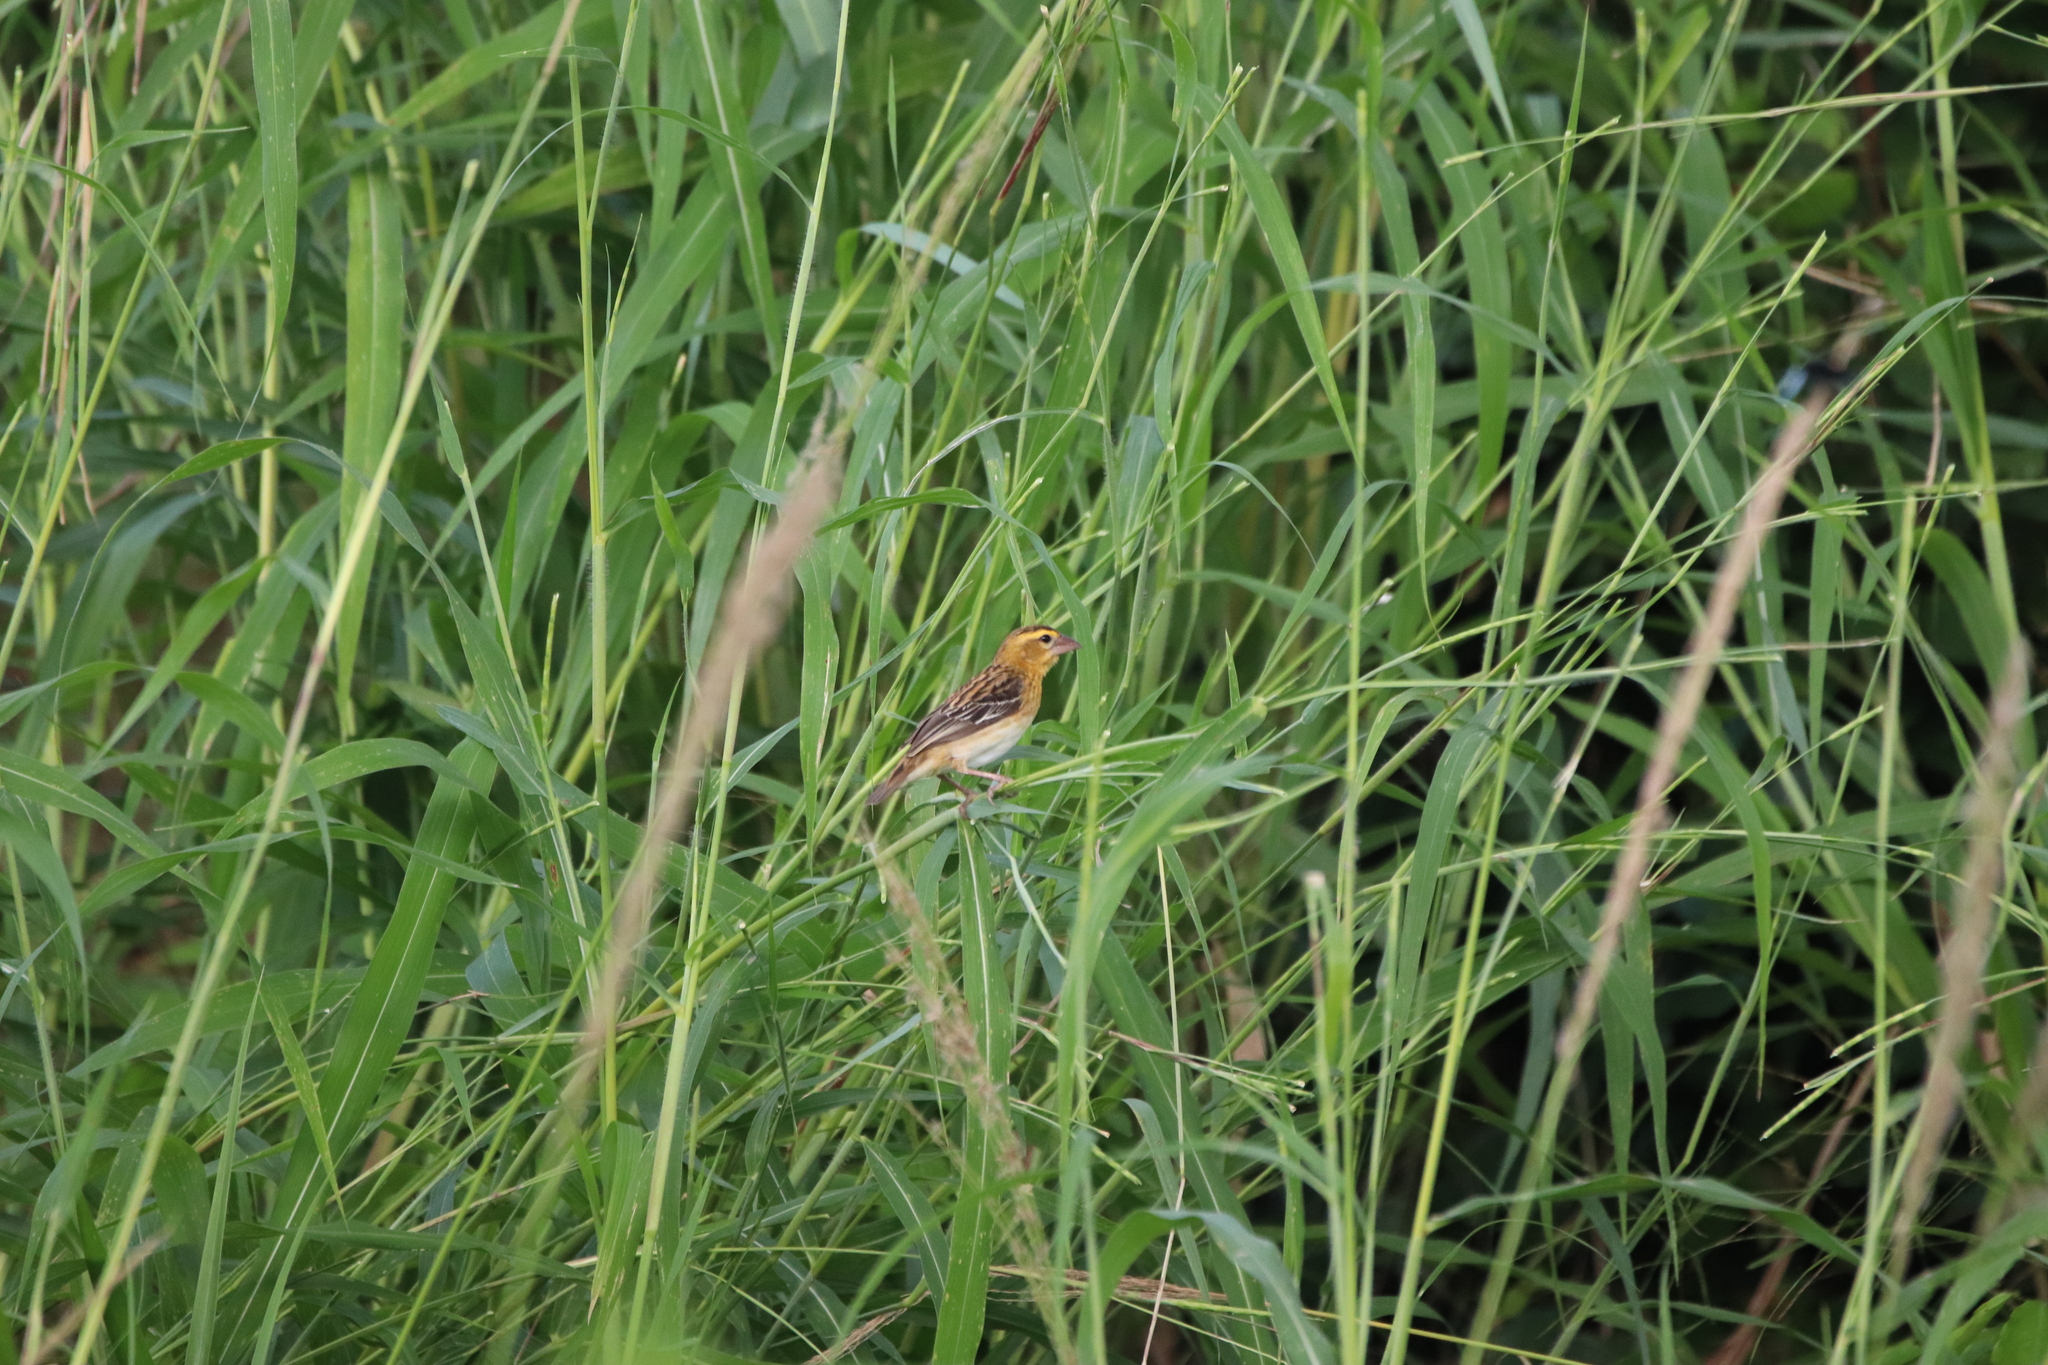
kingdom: Animalia
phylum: Chordata
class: Aves
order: Passeriformes
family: Ploceidae
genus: Euplectes
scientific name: Euplectes hordeaceus
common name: Black-winged red bishop
